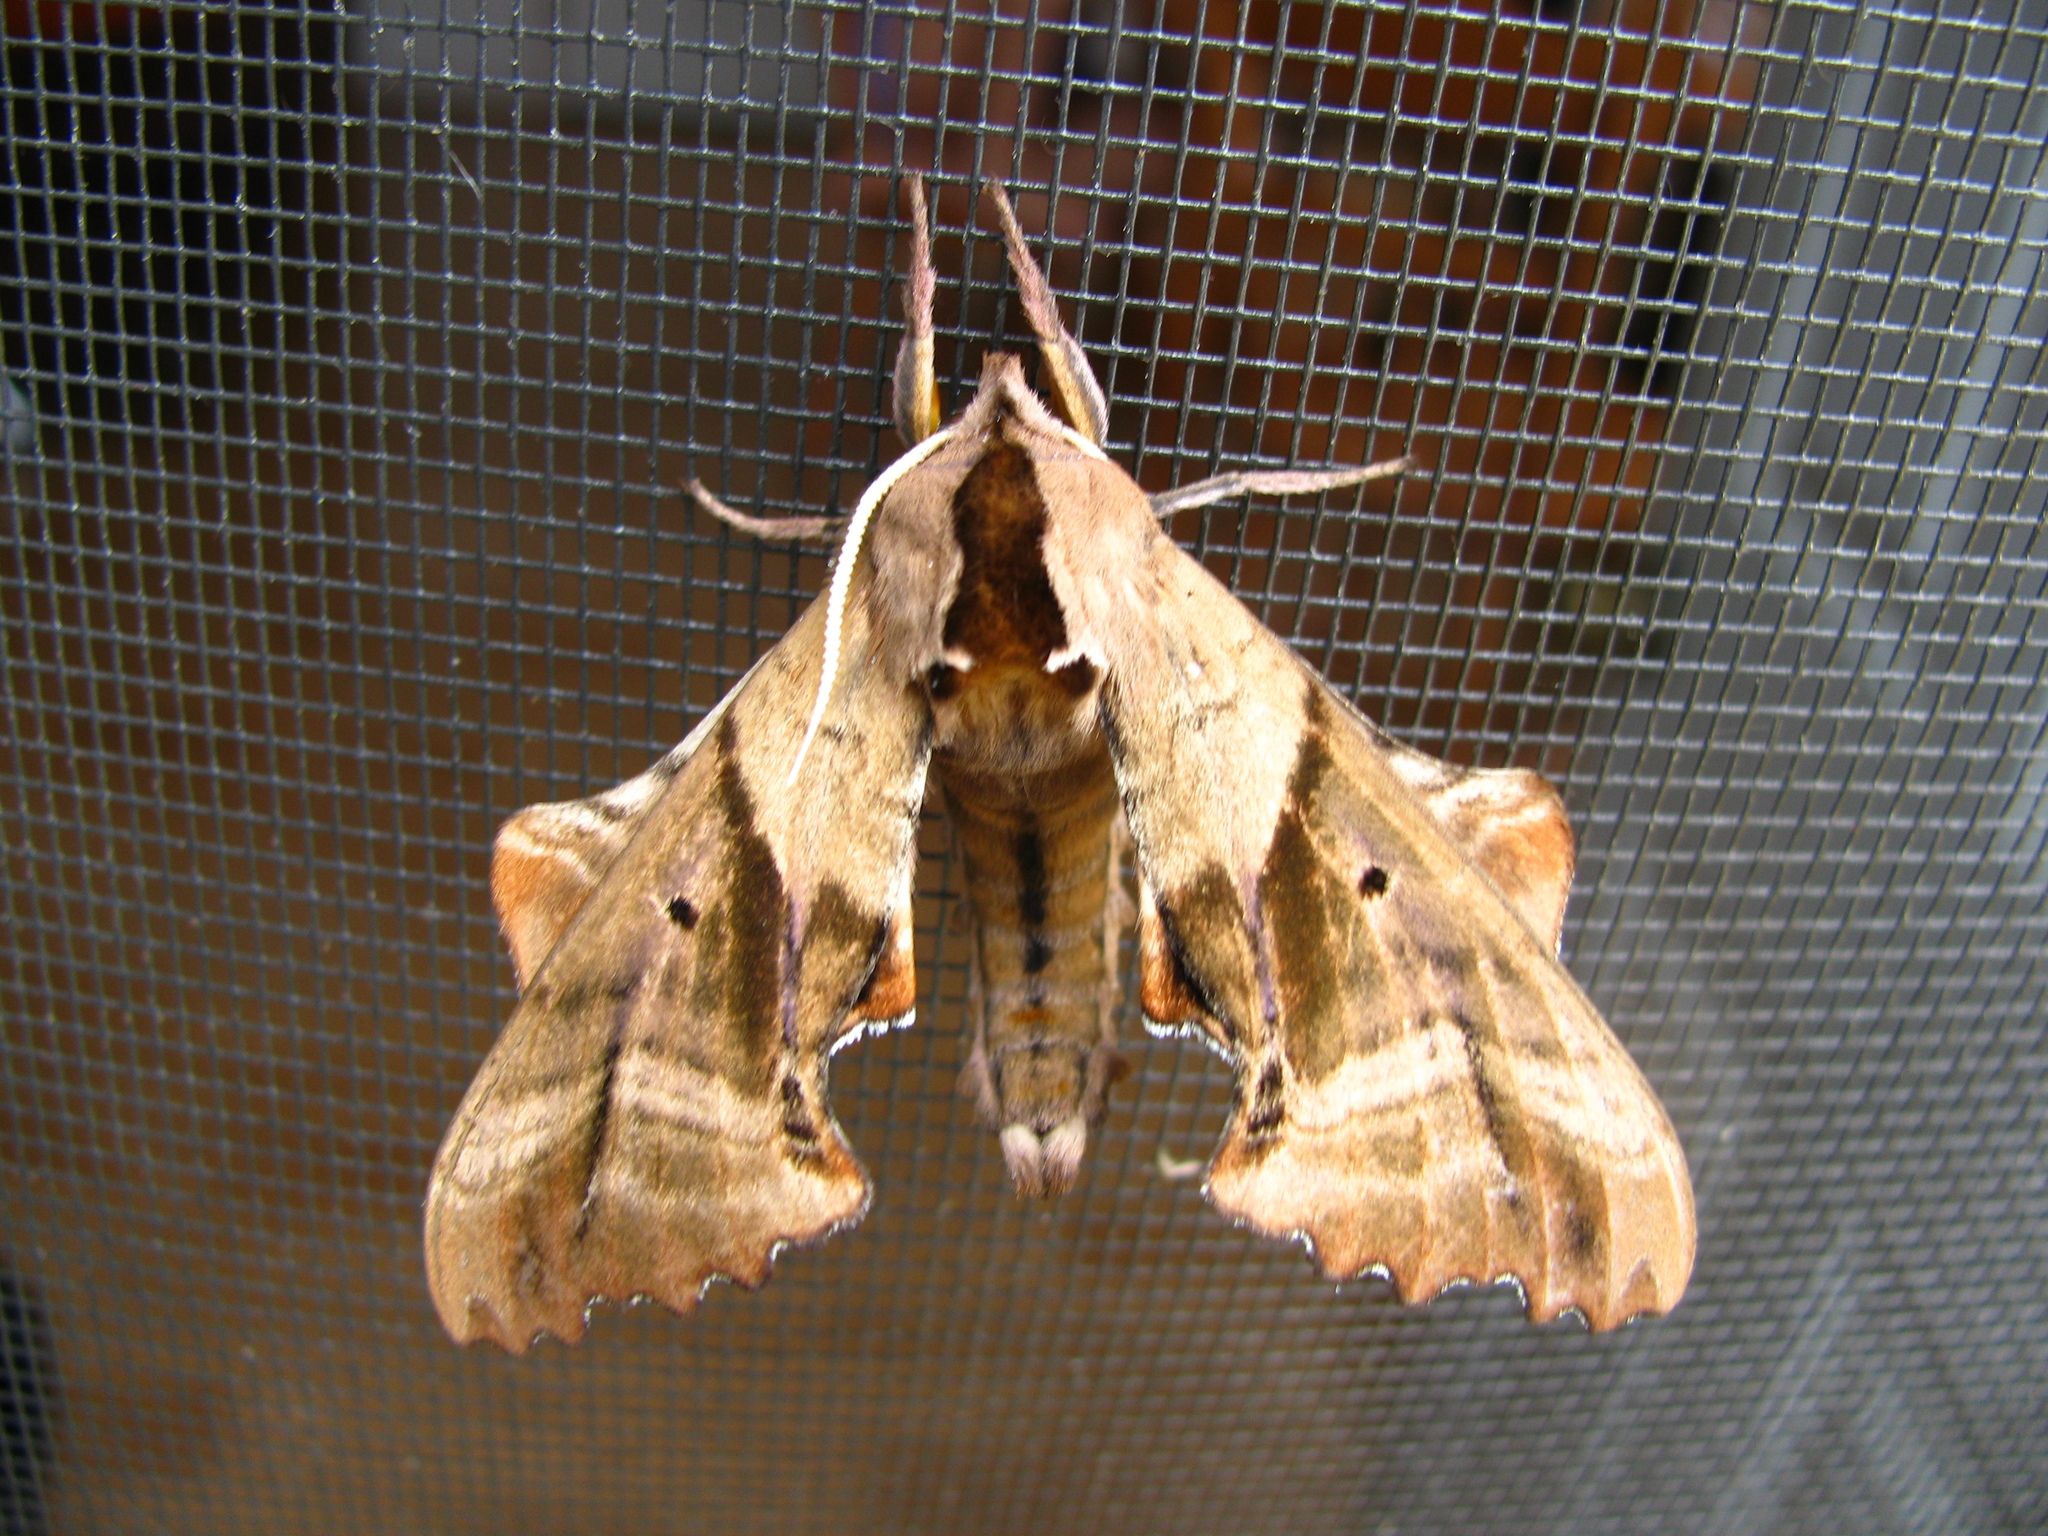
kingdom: Animalia
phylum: Arthropoda
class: Insecta
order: Lepidoptera
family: Sphingidae
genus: Paonias
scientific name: Paonias excaecata
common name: Blind-eyed sphinx
